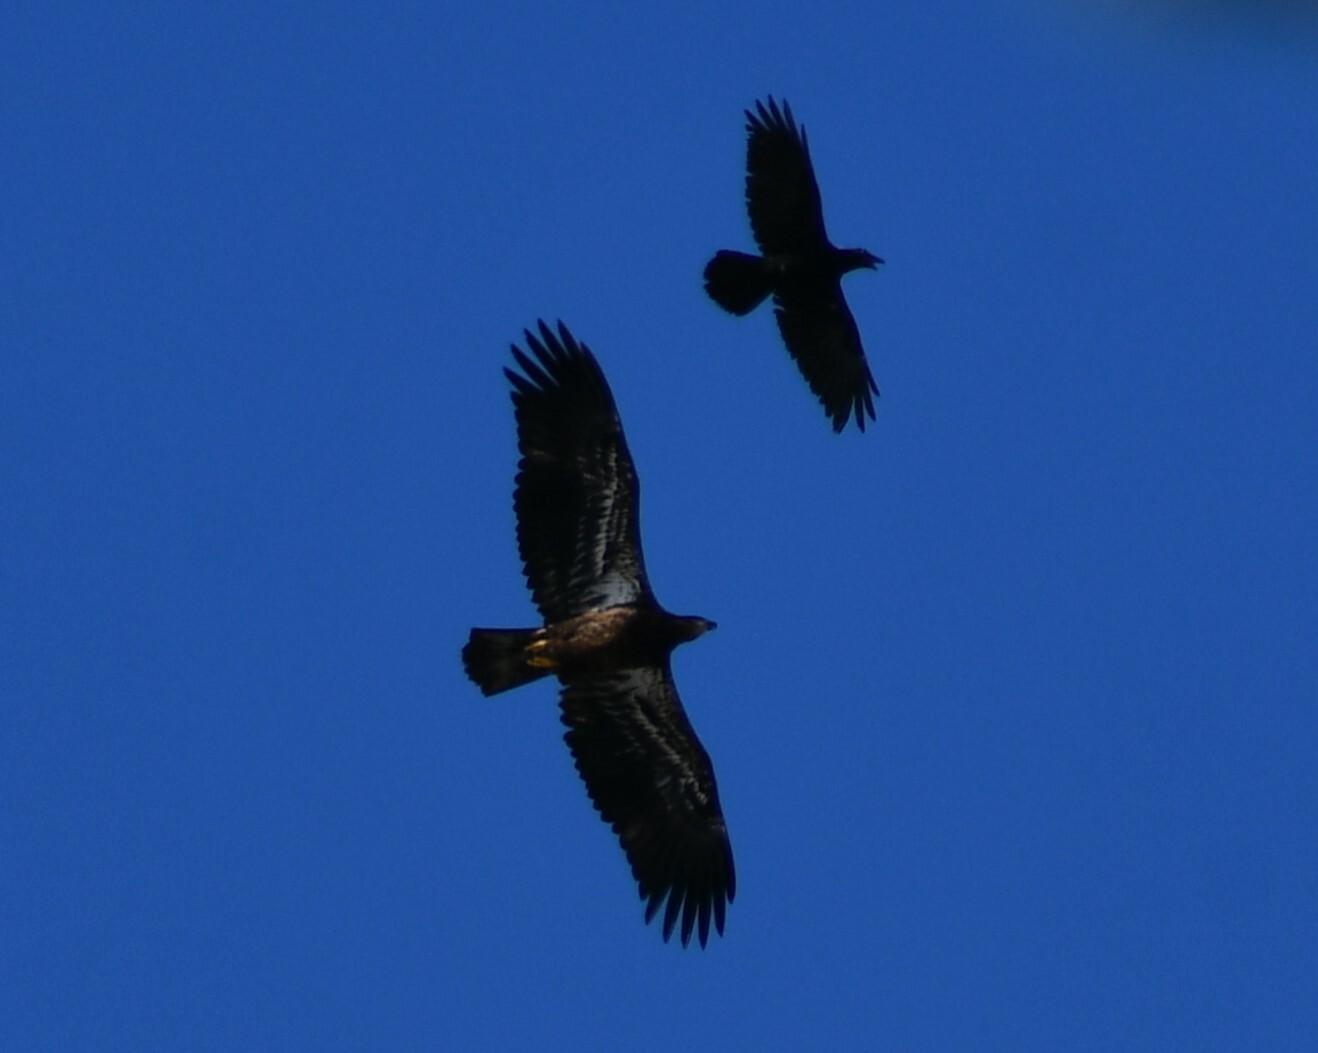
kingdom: Animalia
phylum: Chordata
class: Aves
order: Accipitriformes
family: Accipitridae
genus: Haliaeetus
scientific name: Haliaeetus leucocephalus
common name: Bald eagle
